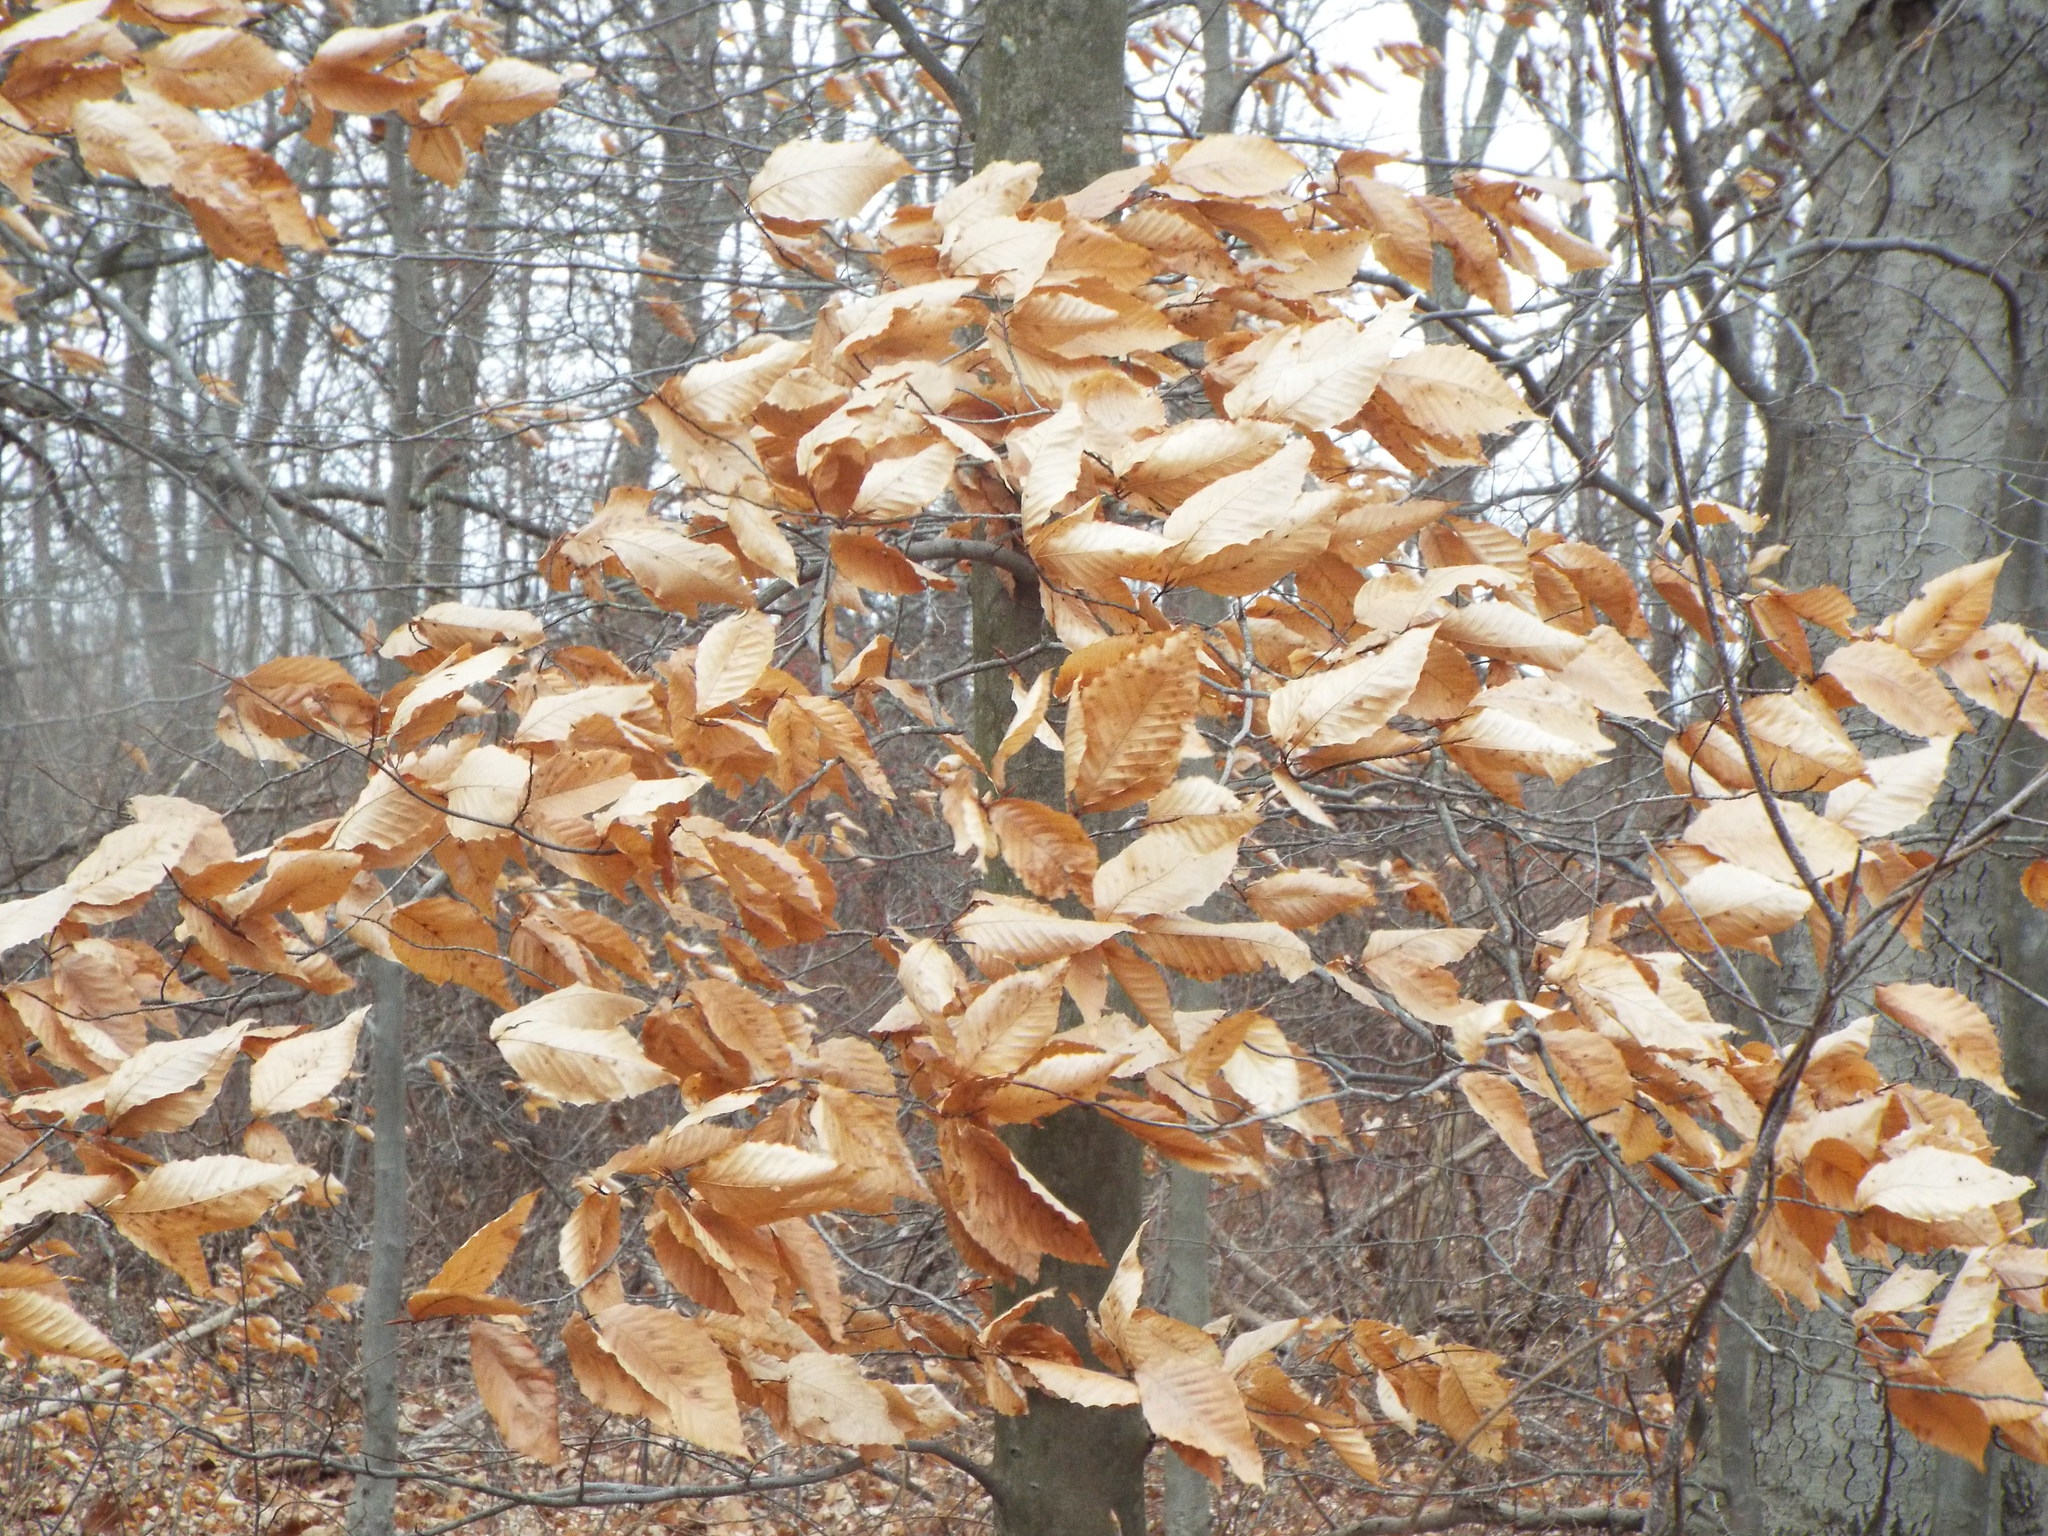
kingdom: Plantae
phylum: Tracheophyta
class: Magnoliopsida
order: Fagales
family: Fagaceae
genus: Fagus
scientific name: Fagus grandifolia
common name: American beech
